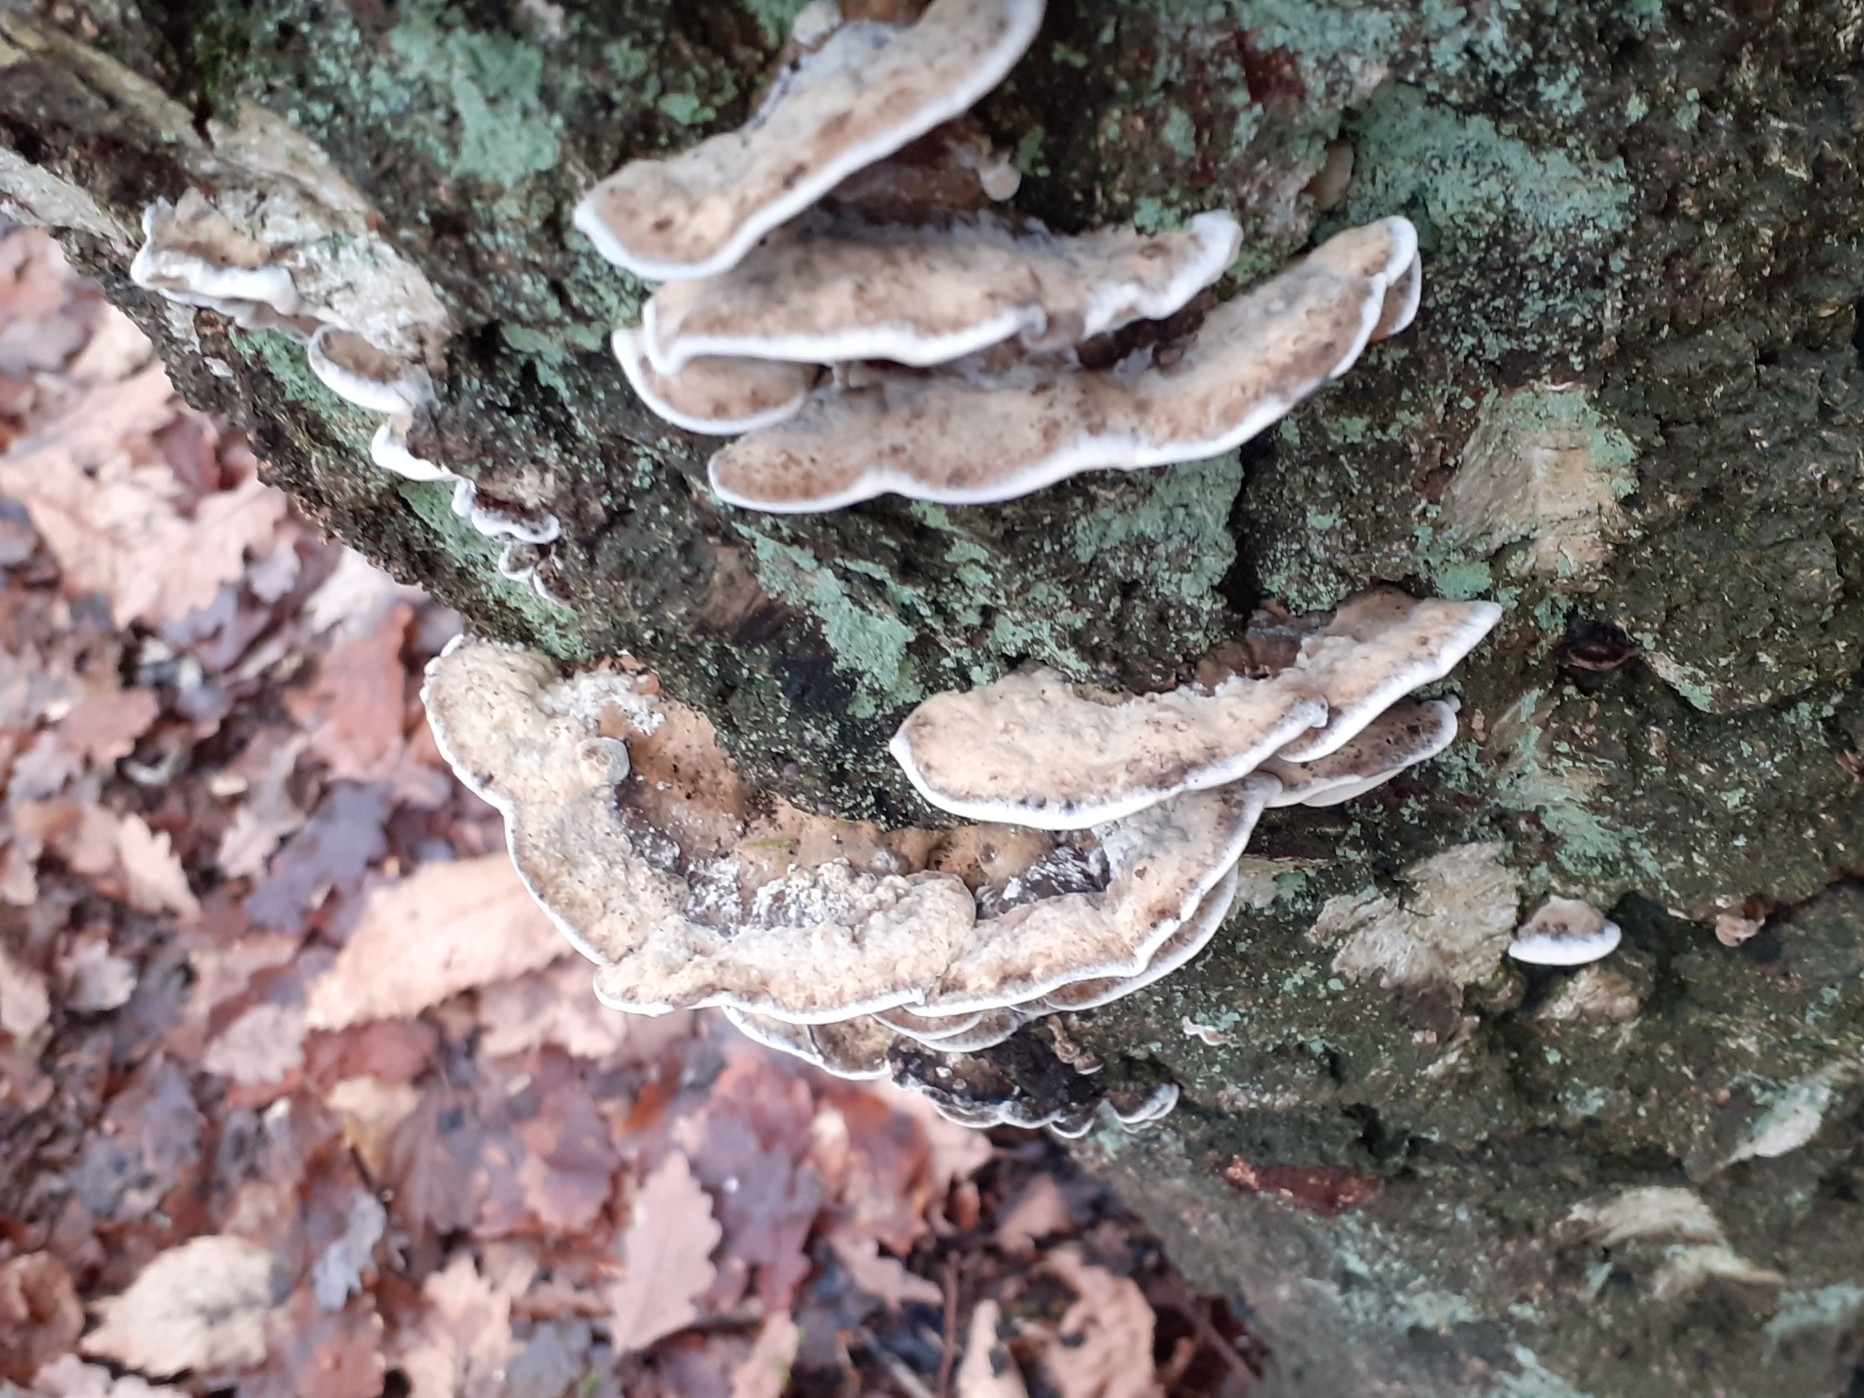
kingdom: Fungi
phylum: Basidiomycota
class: Agaricomycetes
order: Polyporales
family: Phanerochaetaceae
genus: Bjerkandera
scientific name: Bjerkandera adusta
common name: Smoky bracket
